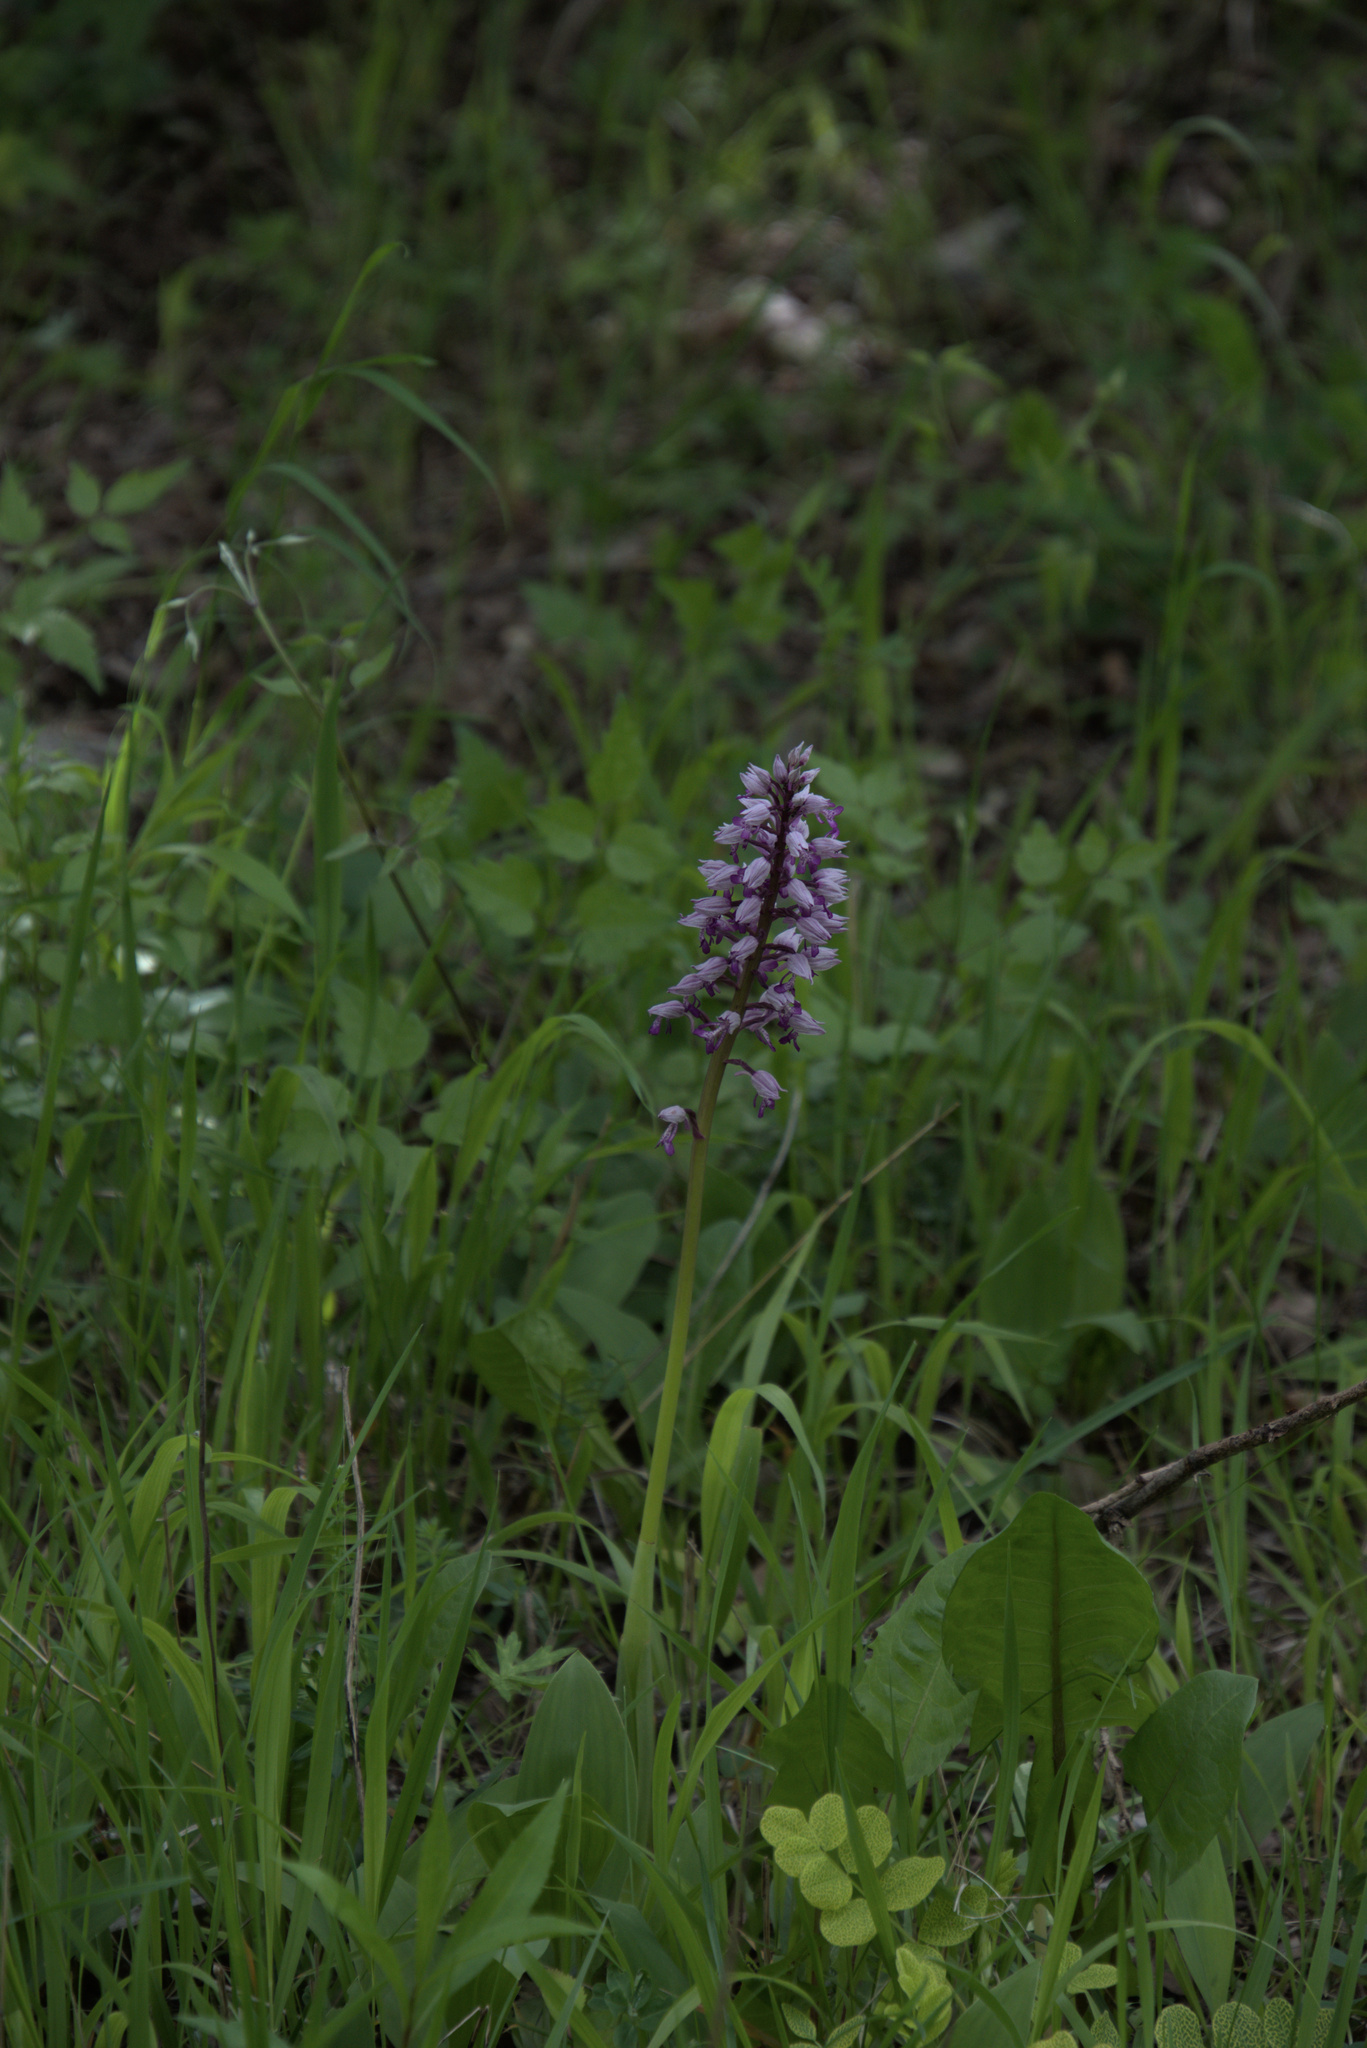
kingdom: Plantae
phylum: Tracheophyta
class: Liliopsida
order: Asparagales
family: Orchidaceae
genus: Orchis
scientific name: Orchis militaris
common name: Military orchid
